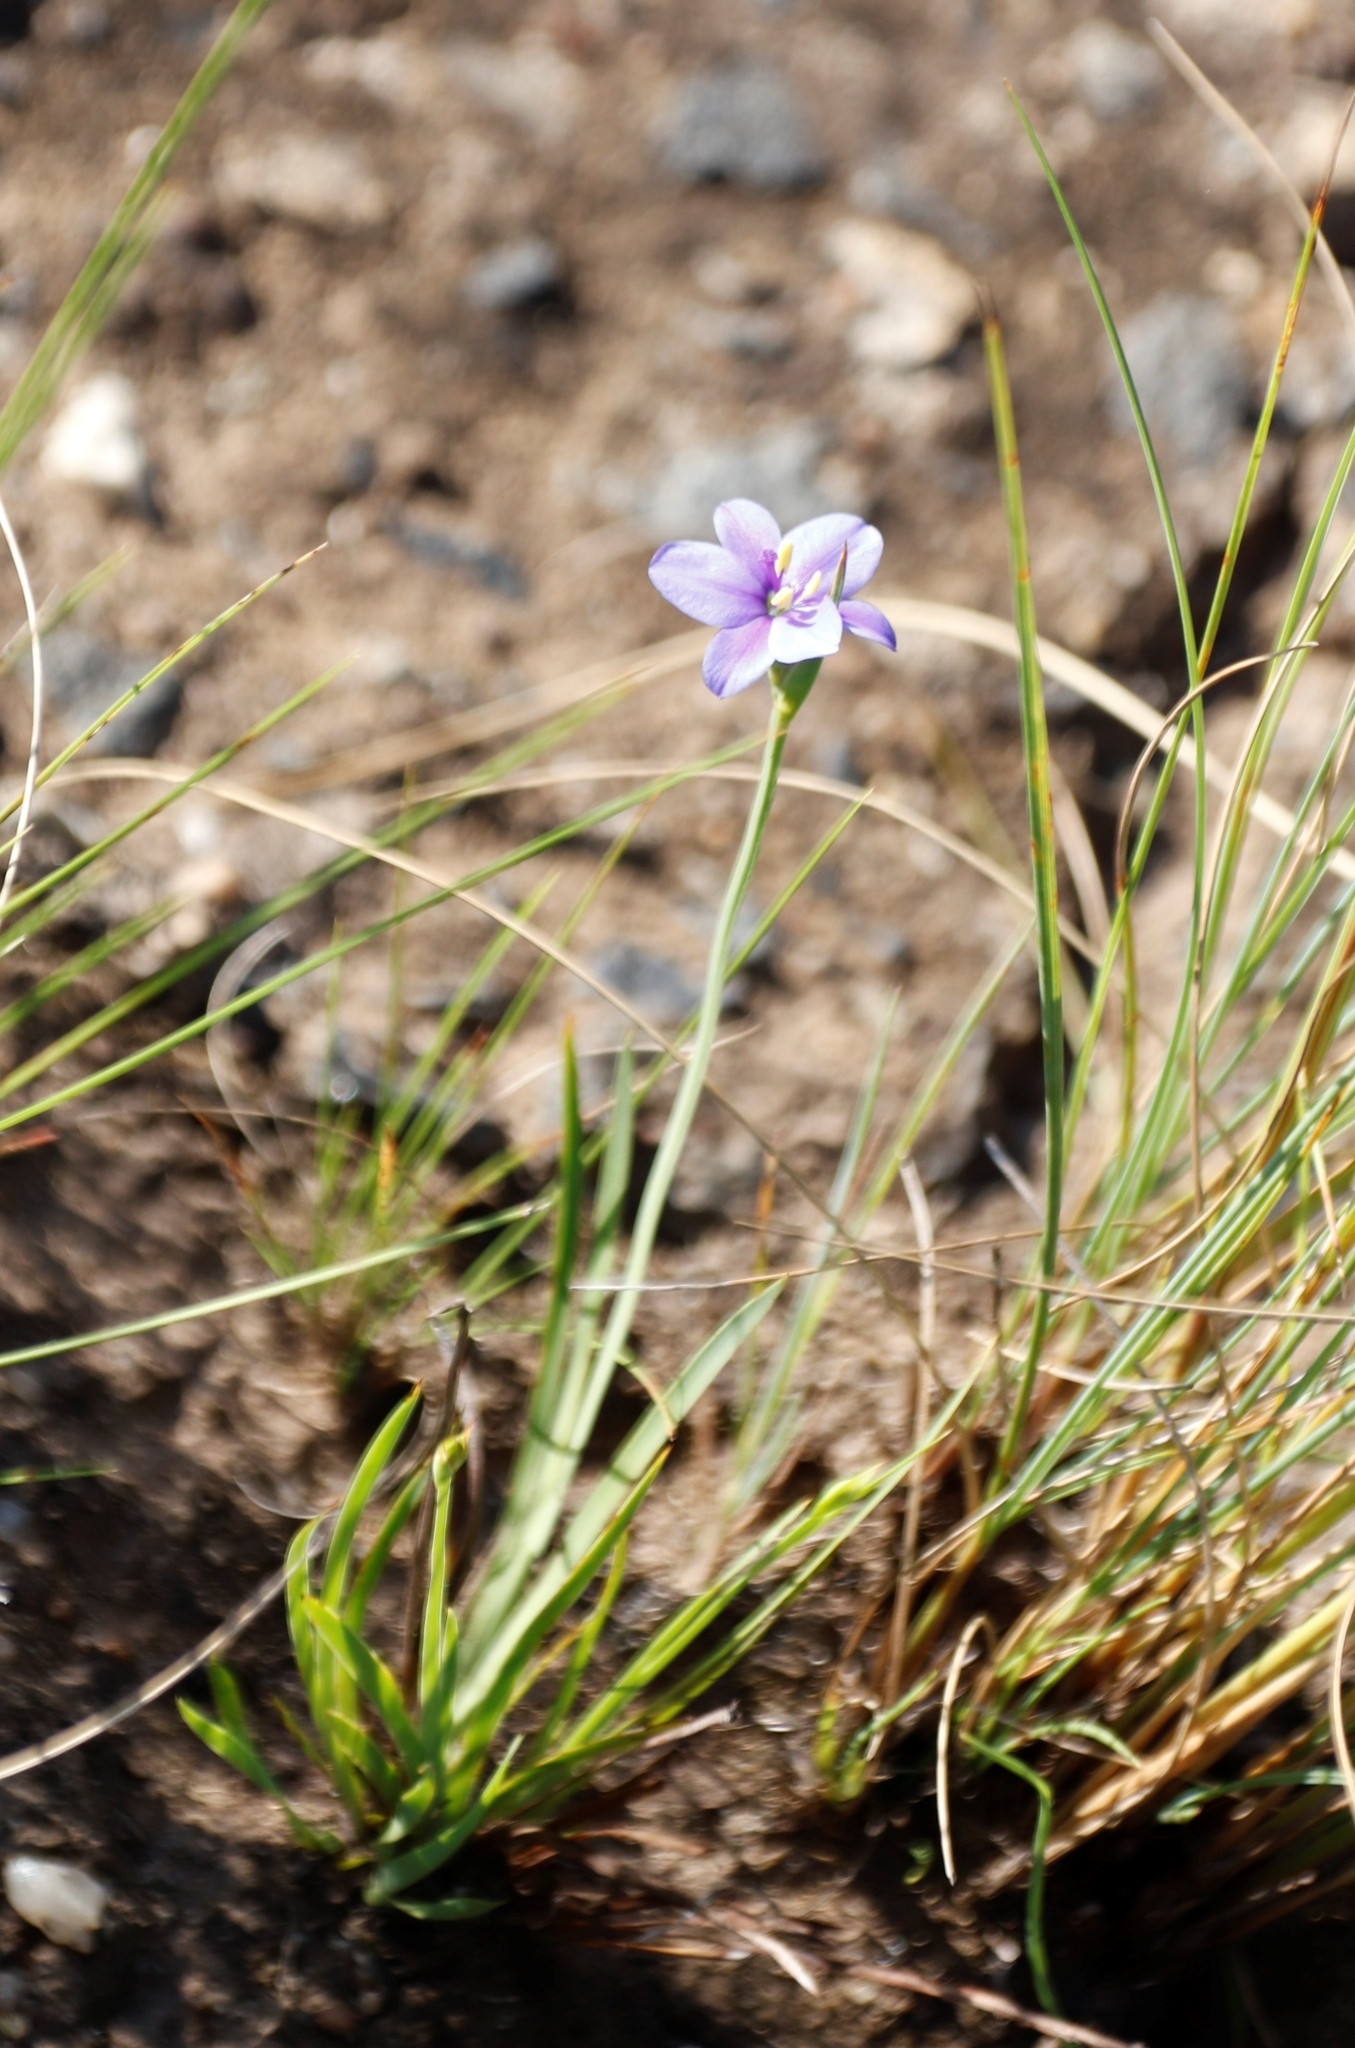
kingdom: Plantae
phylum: Tracheophyta
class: Liliopsida
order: Asparagales
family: Iridaceae
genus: Aristea
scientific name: Aristea abyssinica
